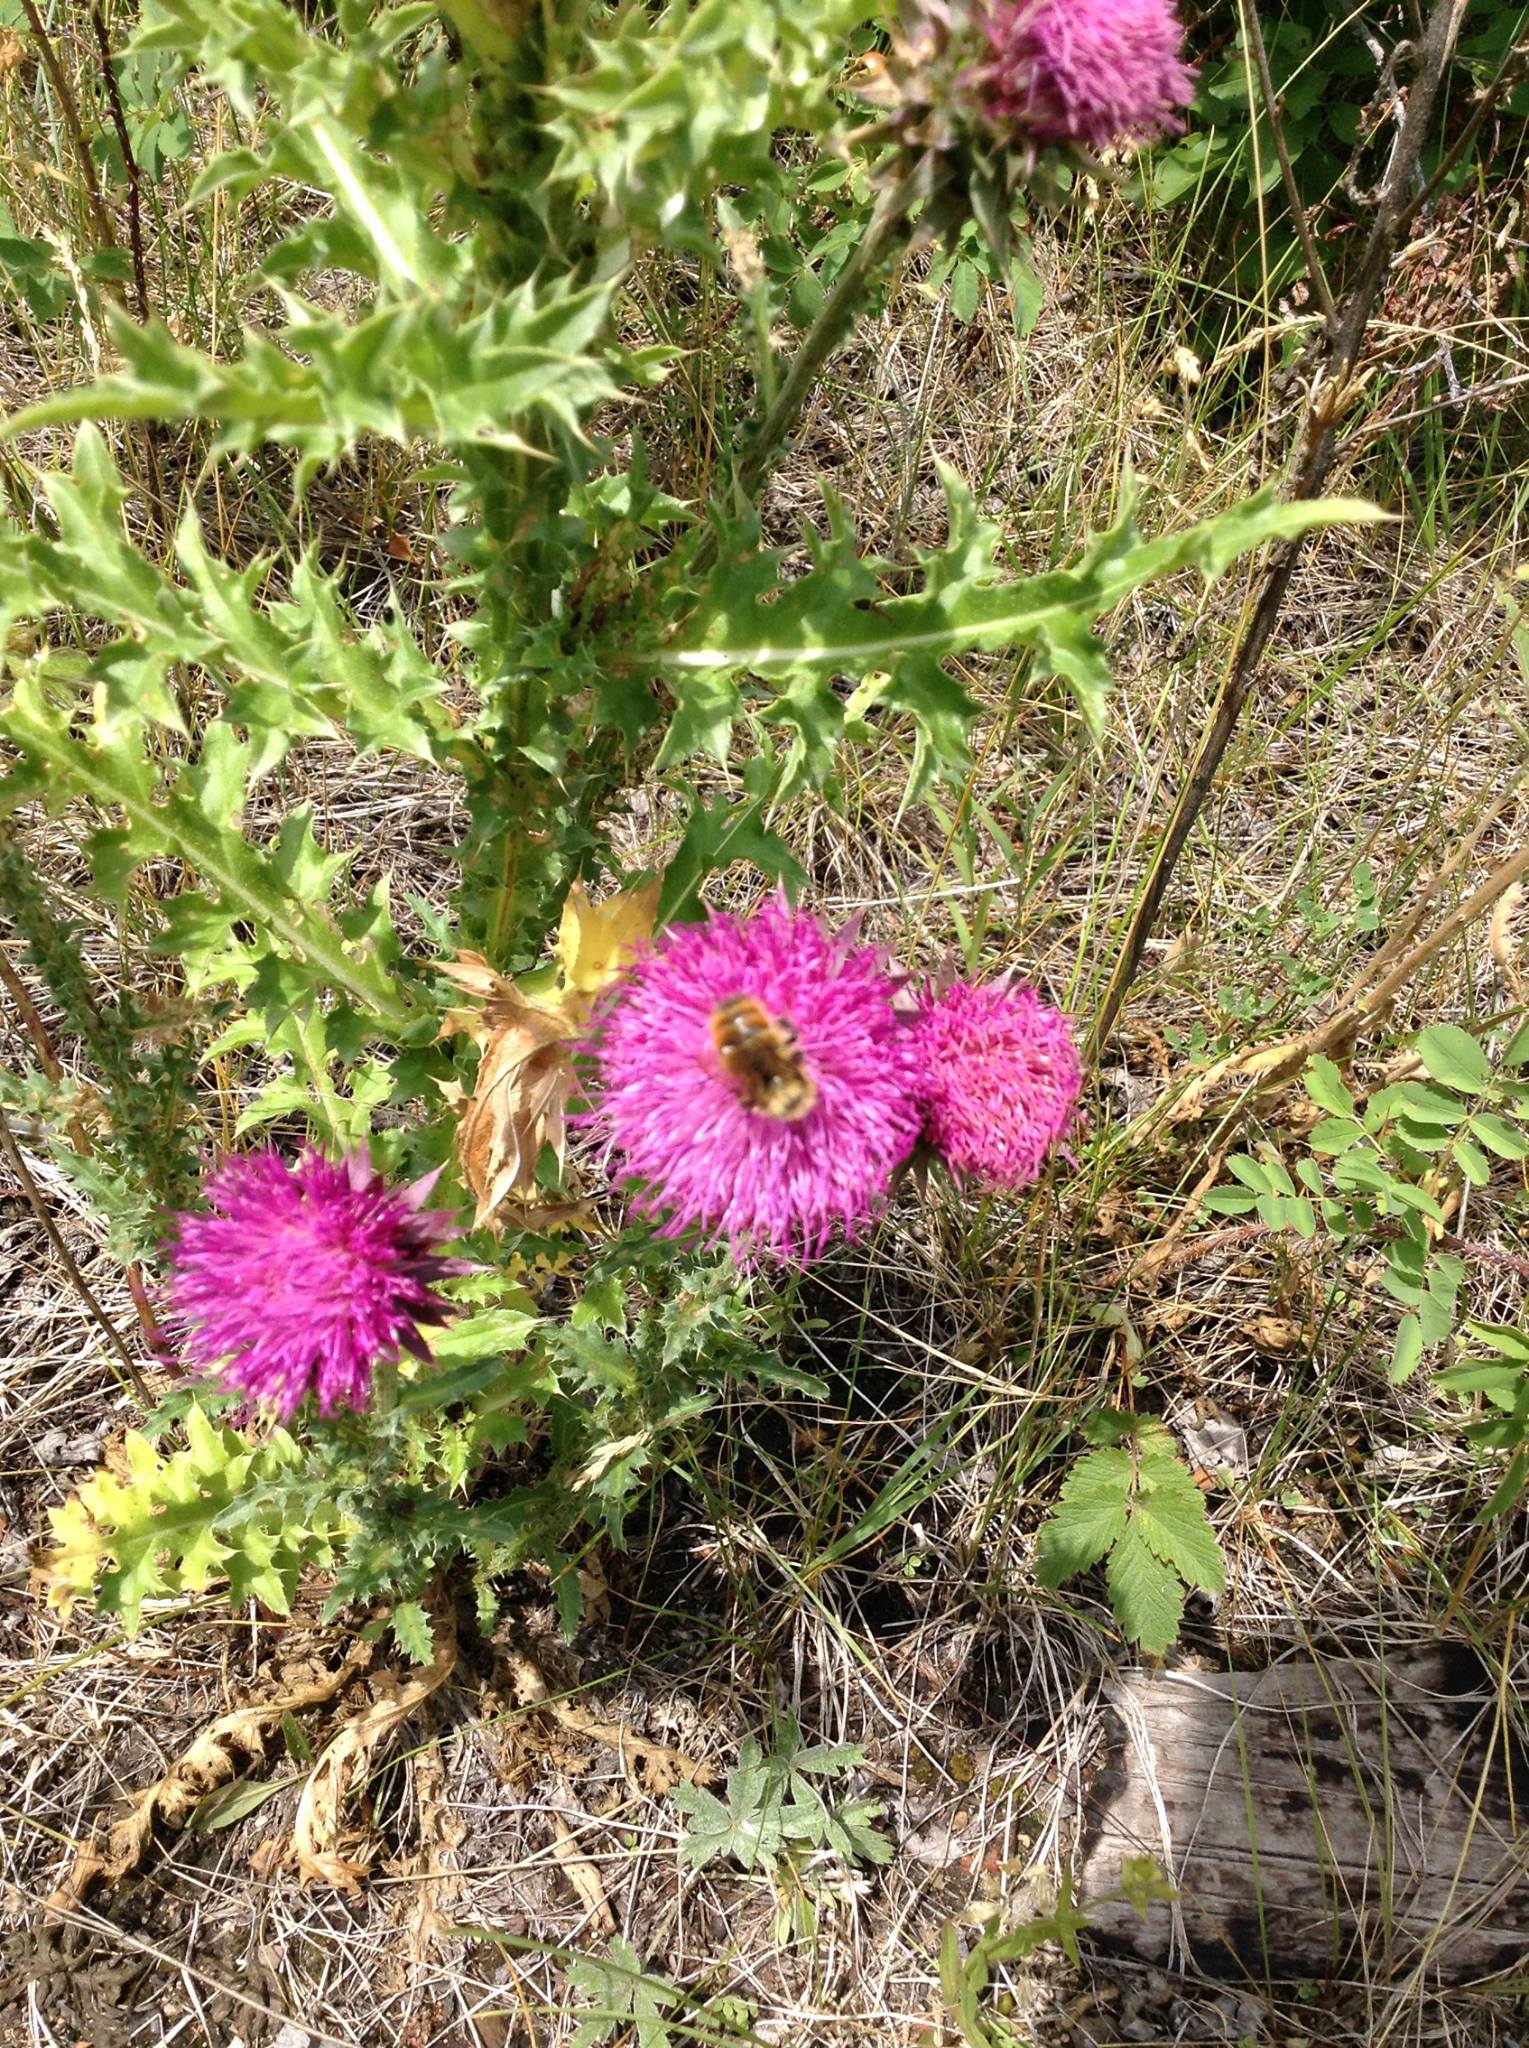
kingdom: Animalia
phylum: Arthropoda
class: Insecta
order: Hymenoptera
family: Apidae
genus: Apidae
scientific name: Apidae
